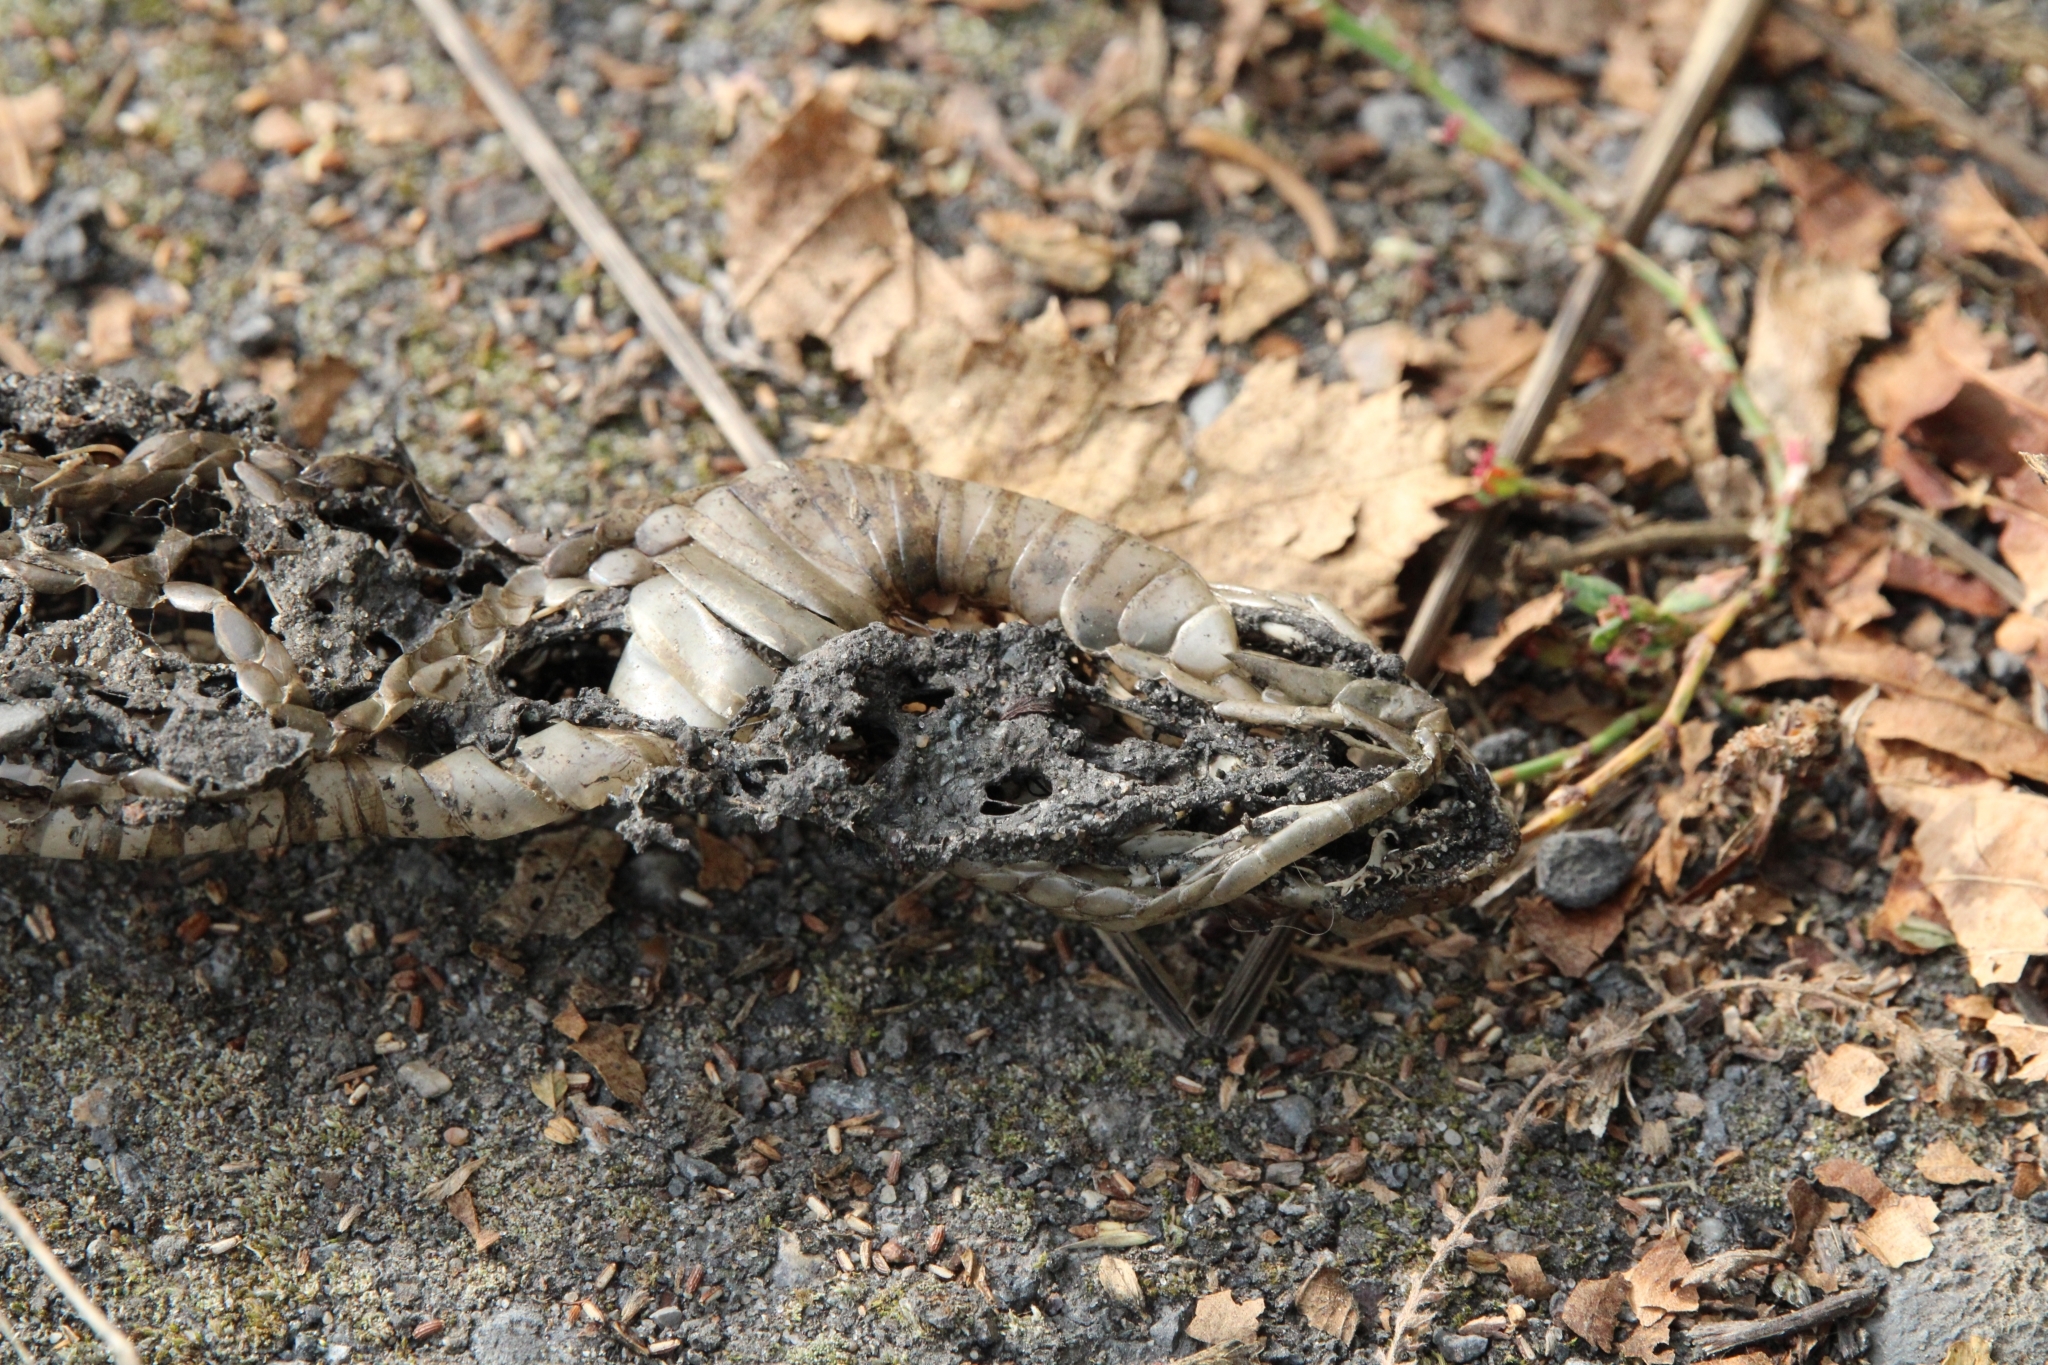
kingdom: Animalia
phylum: Chordata
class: Squamata
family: Viperidae
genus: Vipera
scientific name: Vipera berus
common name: Adder
